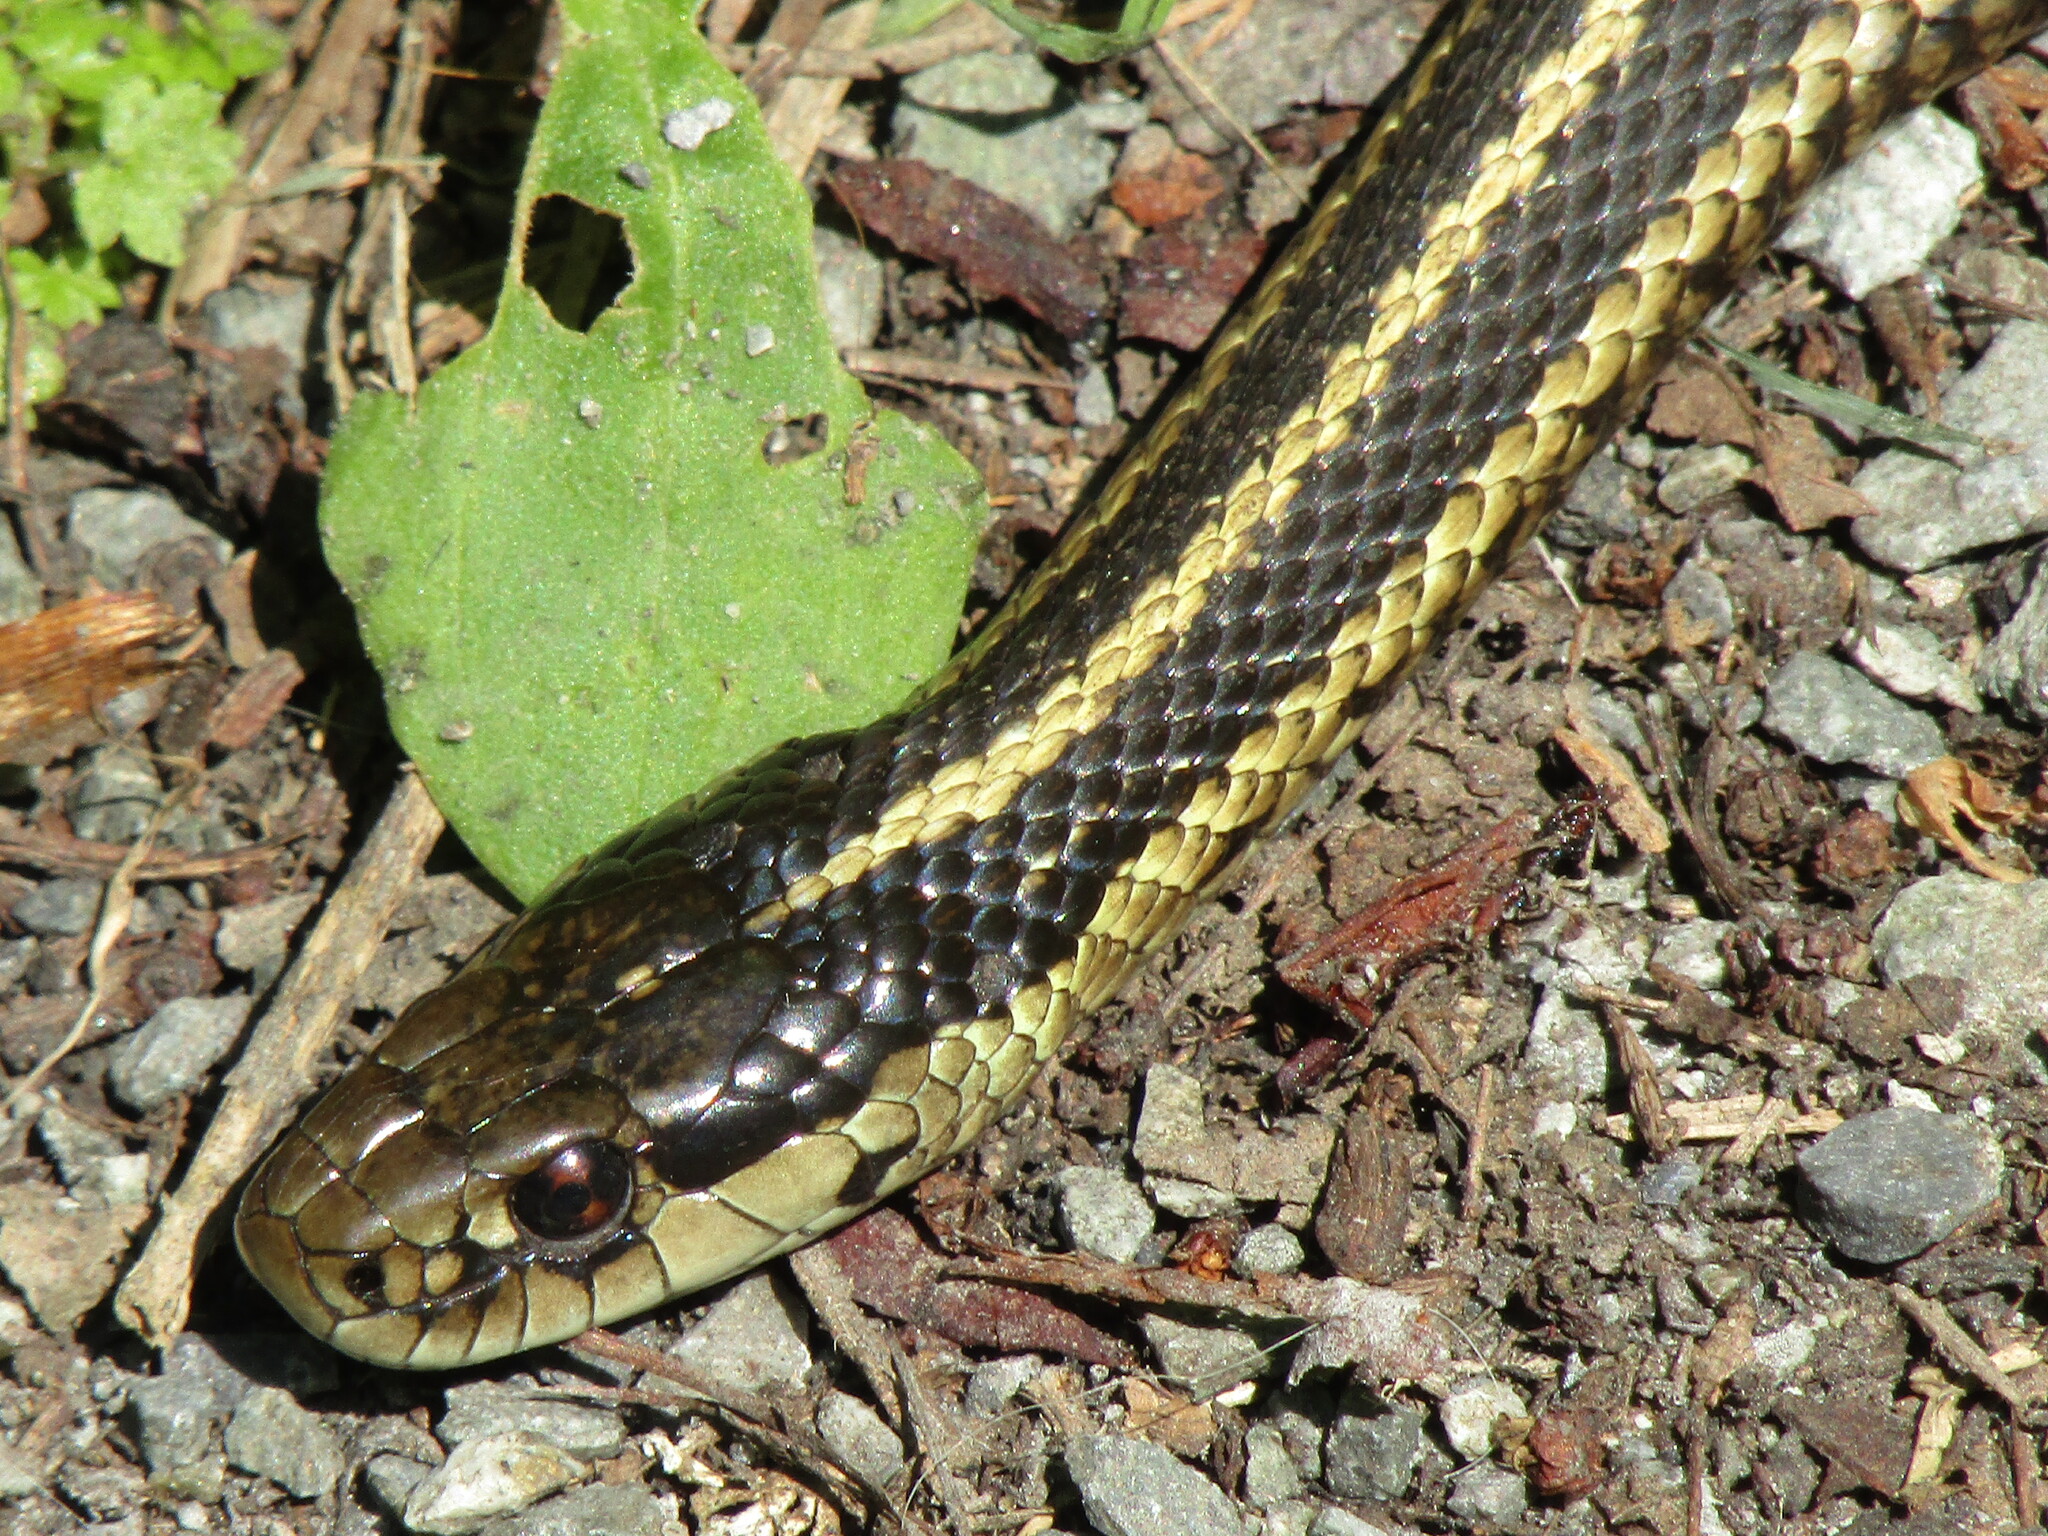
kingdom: Animalia
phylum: Chordata
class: Squamata
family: Colubridae
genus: Thamnophis
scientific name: Thamnophis ordinoides
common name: Northwestern garter snake
